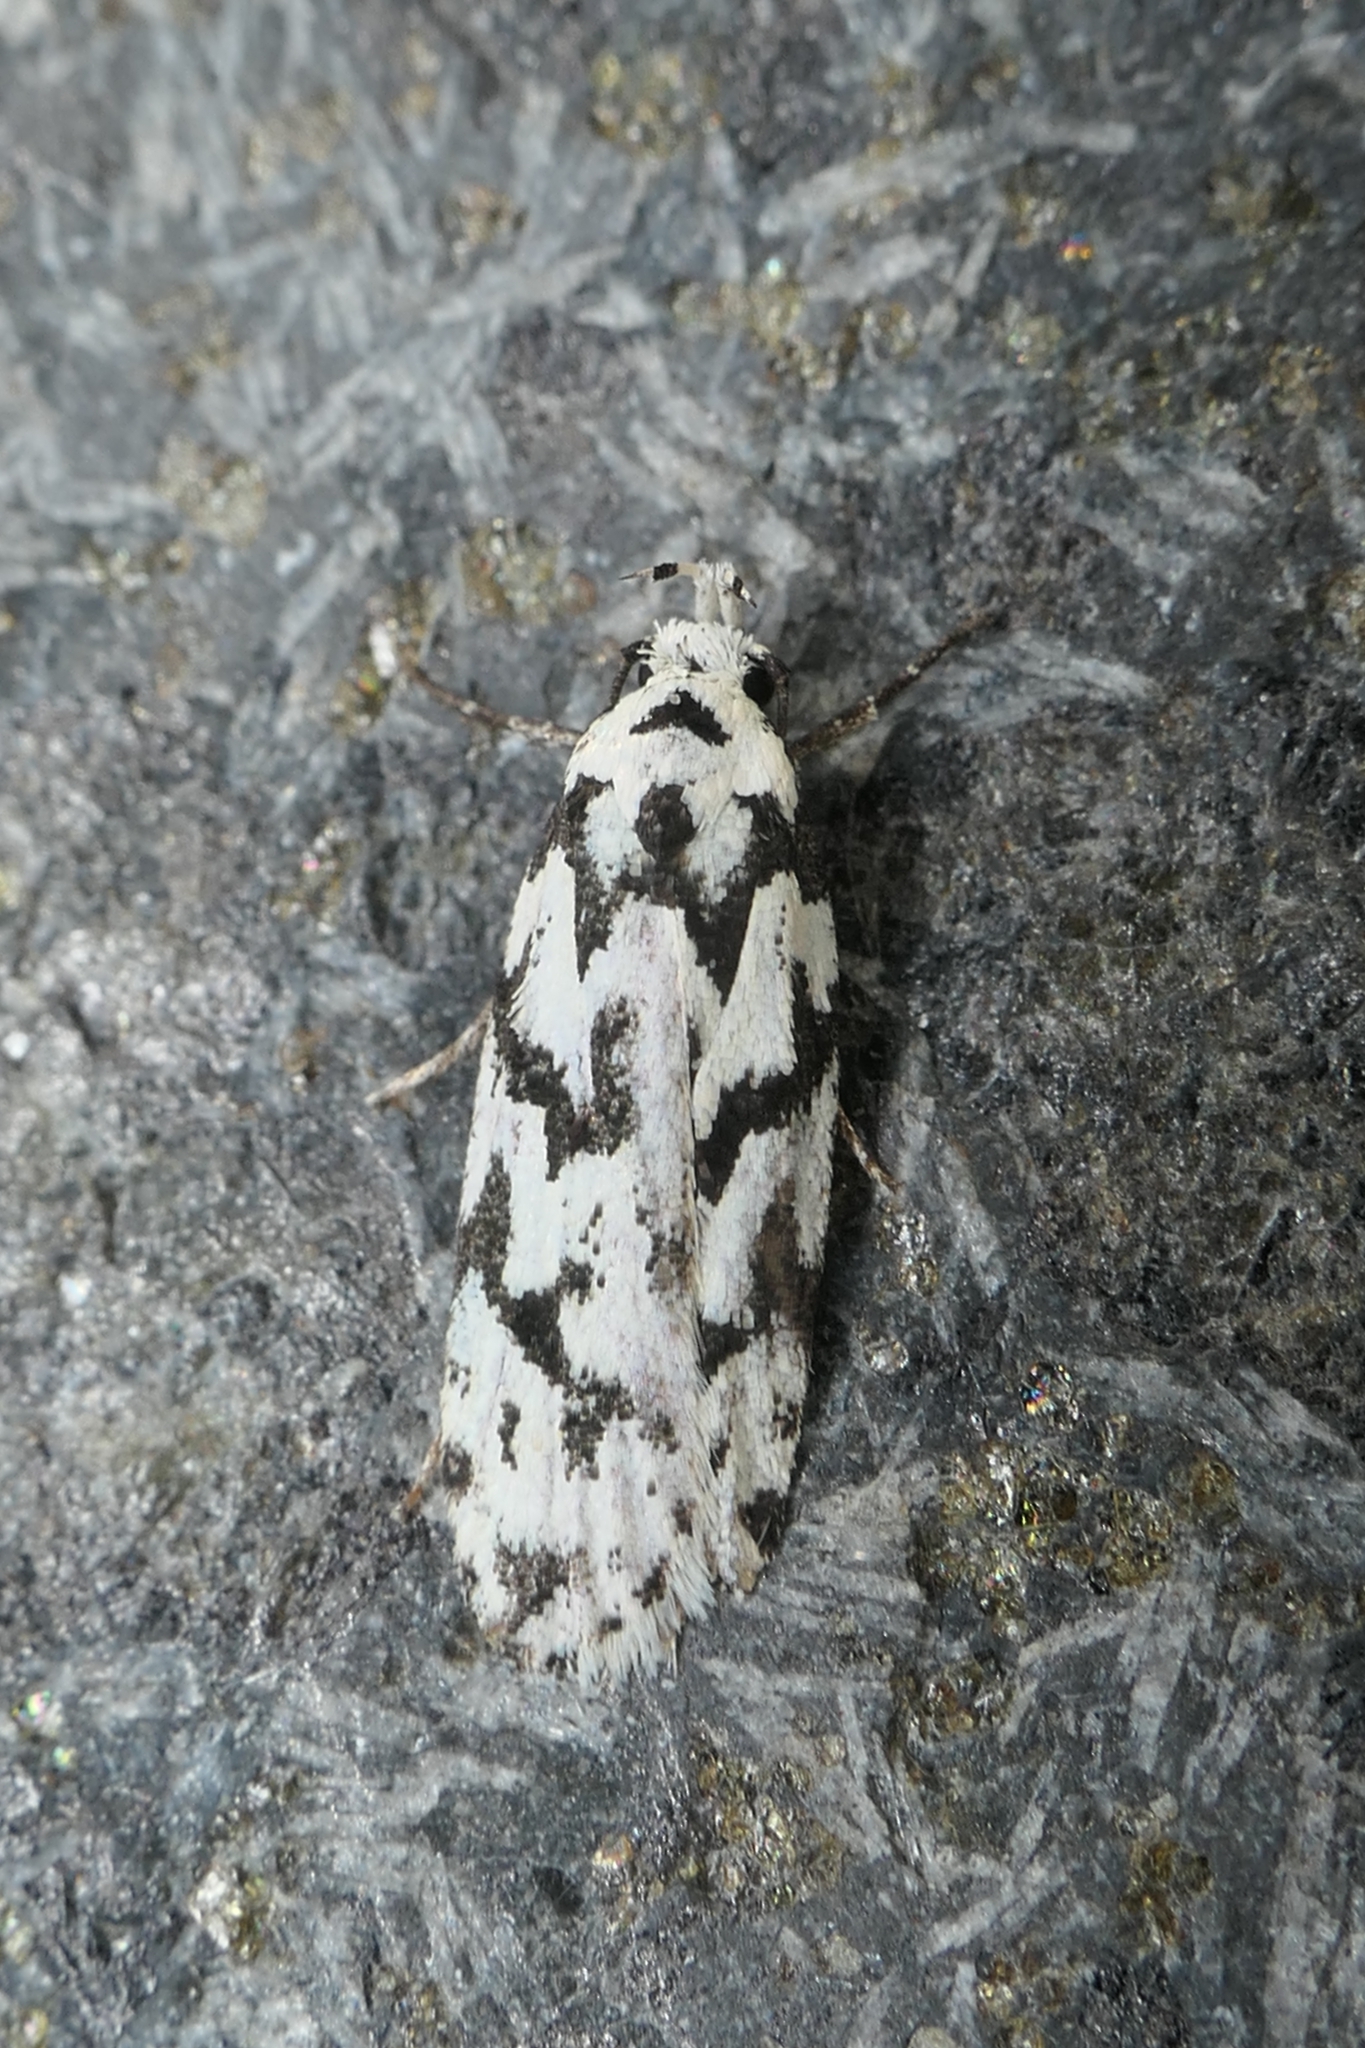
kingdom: Animalia
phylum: Arthropoda
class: Insecta
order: Lepidoptera
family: Oecophoridae
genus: Izatha
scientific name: Izatha katadiktya
